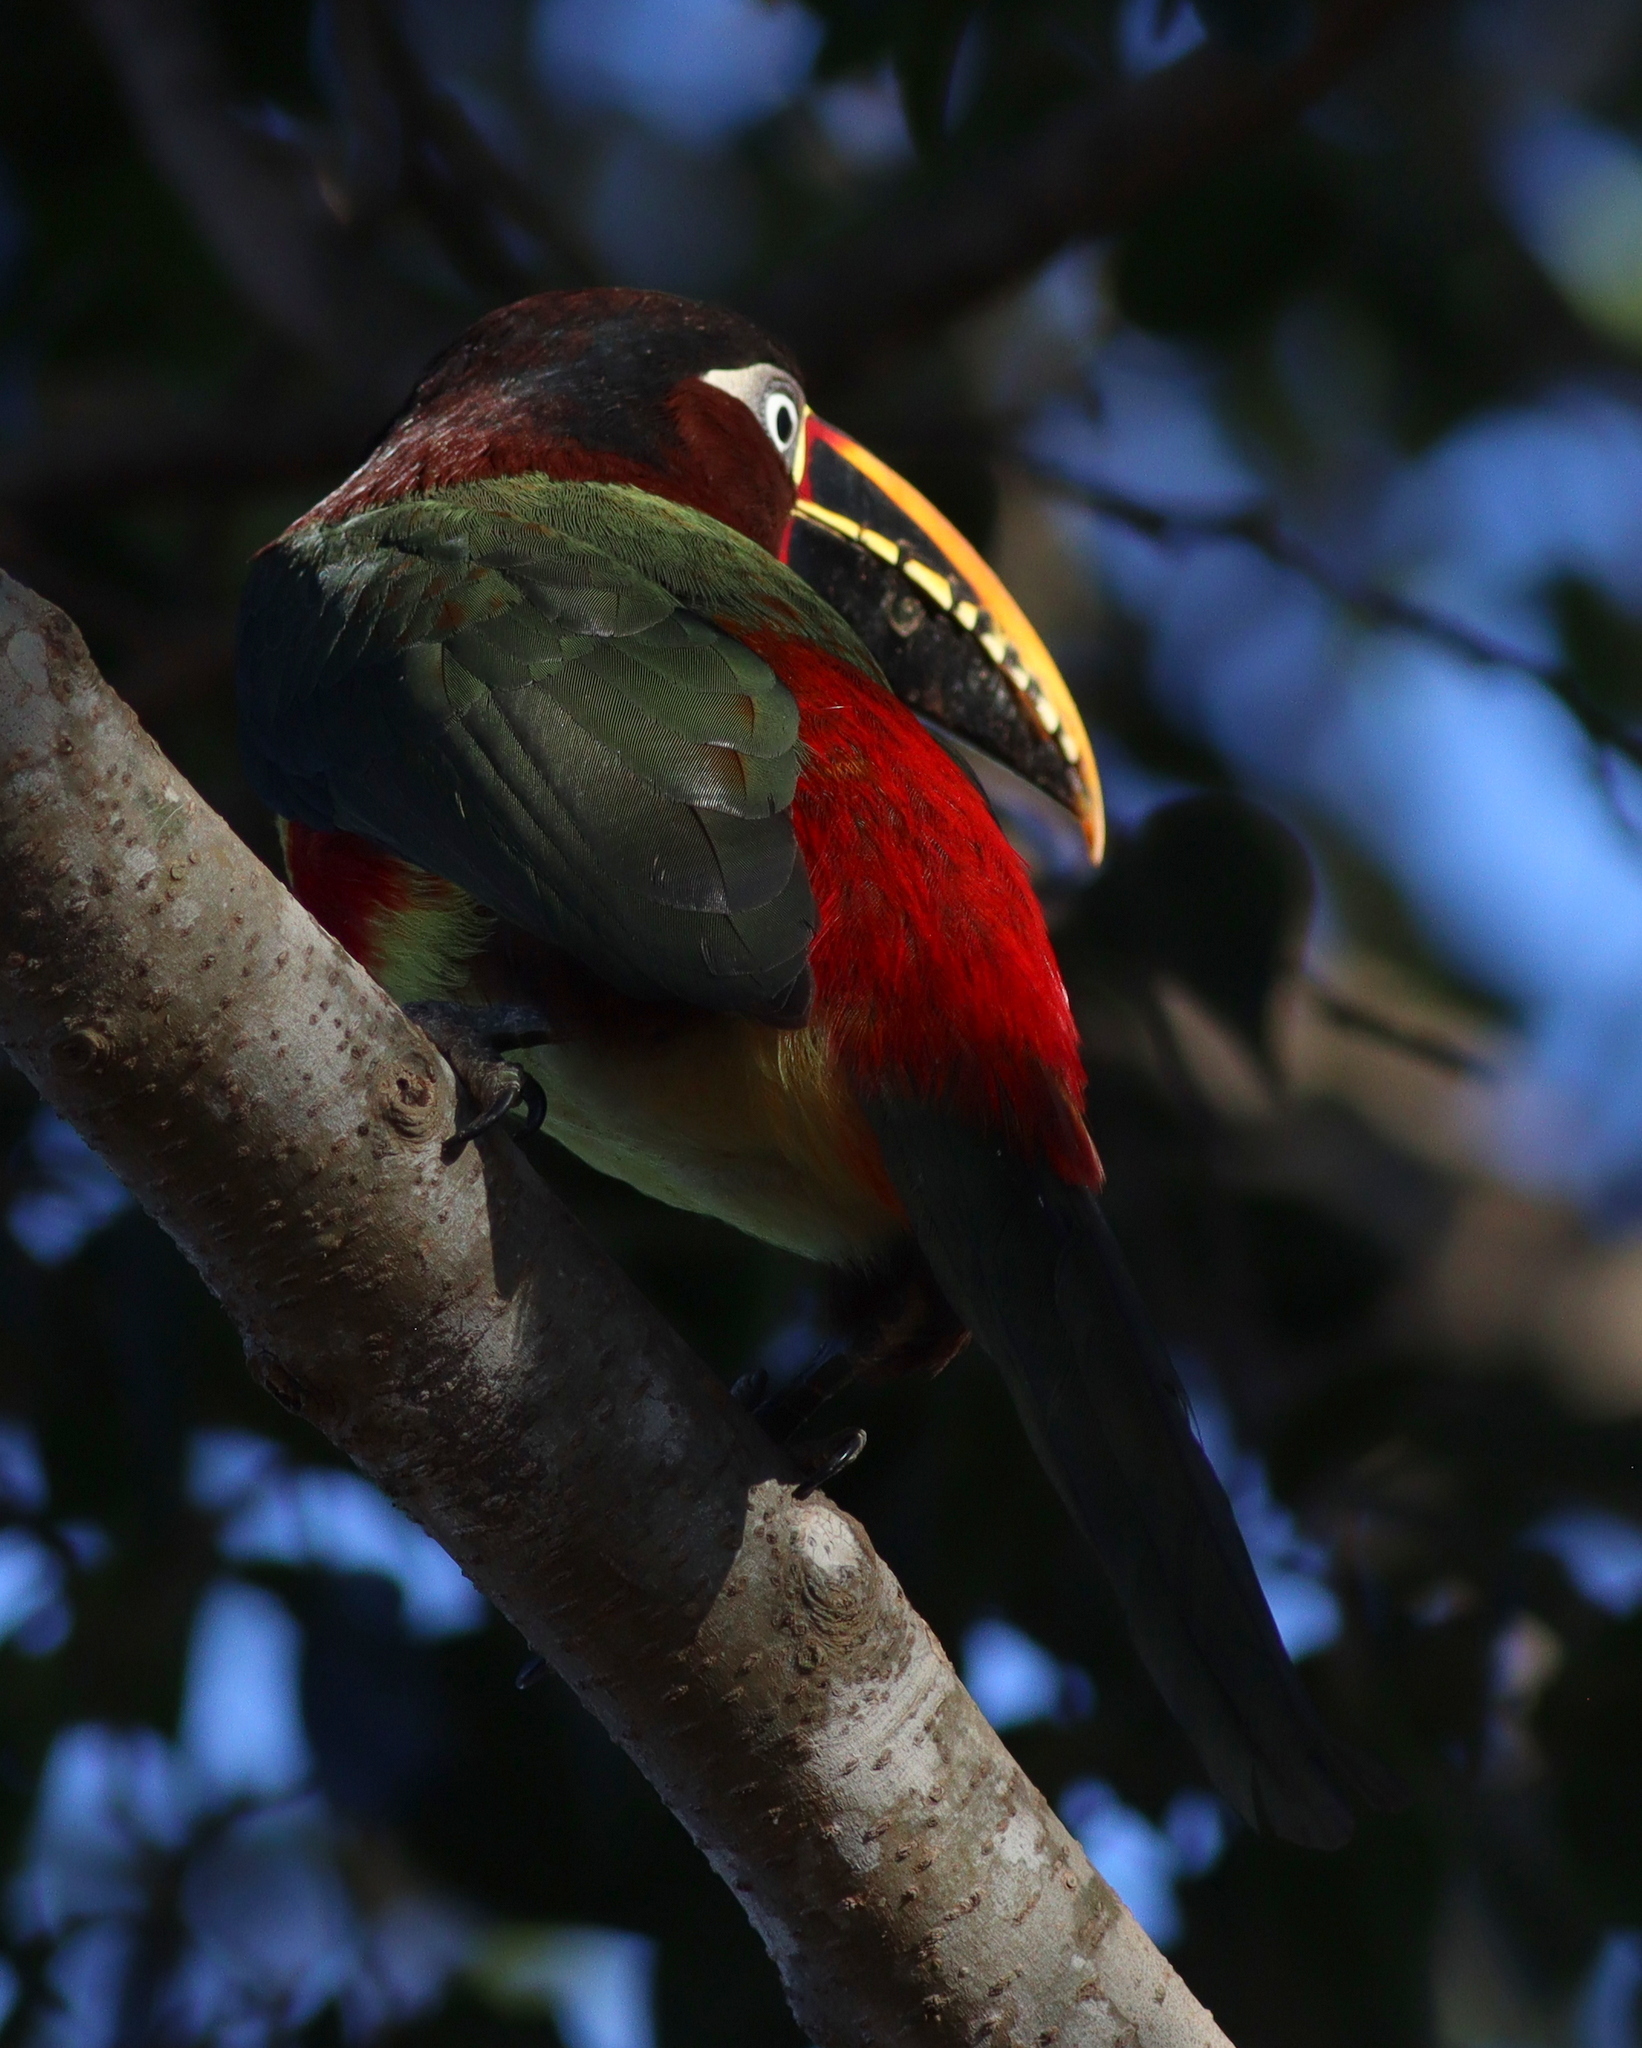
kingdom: Animalia
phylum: Chordata
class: Aves
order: Piciformes
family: Ramphastidae
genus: Pteroglossus
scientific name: Pteroglossus castanotis
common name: Chestnut-eared aracari
